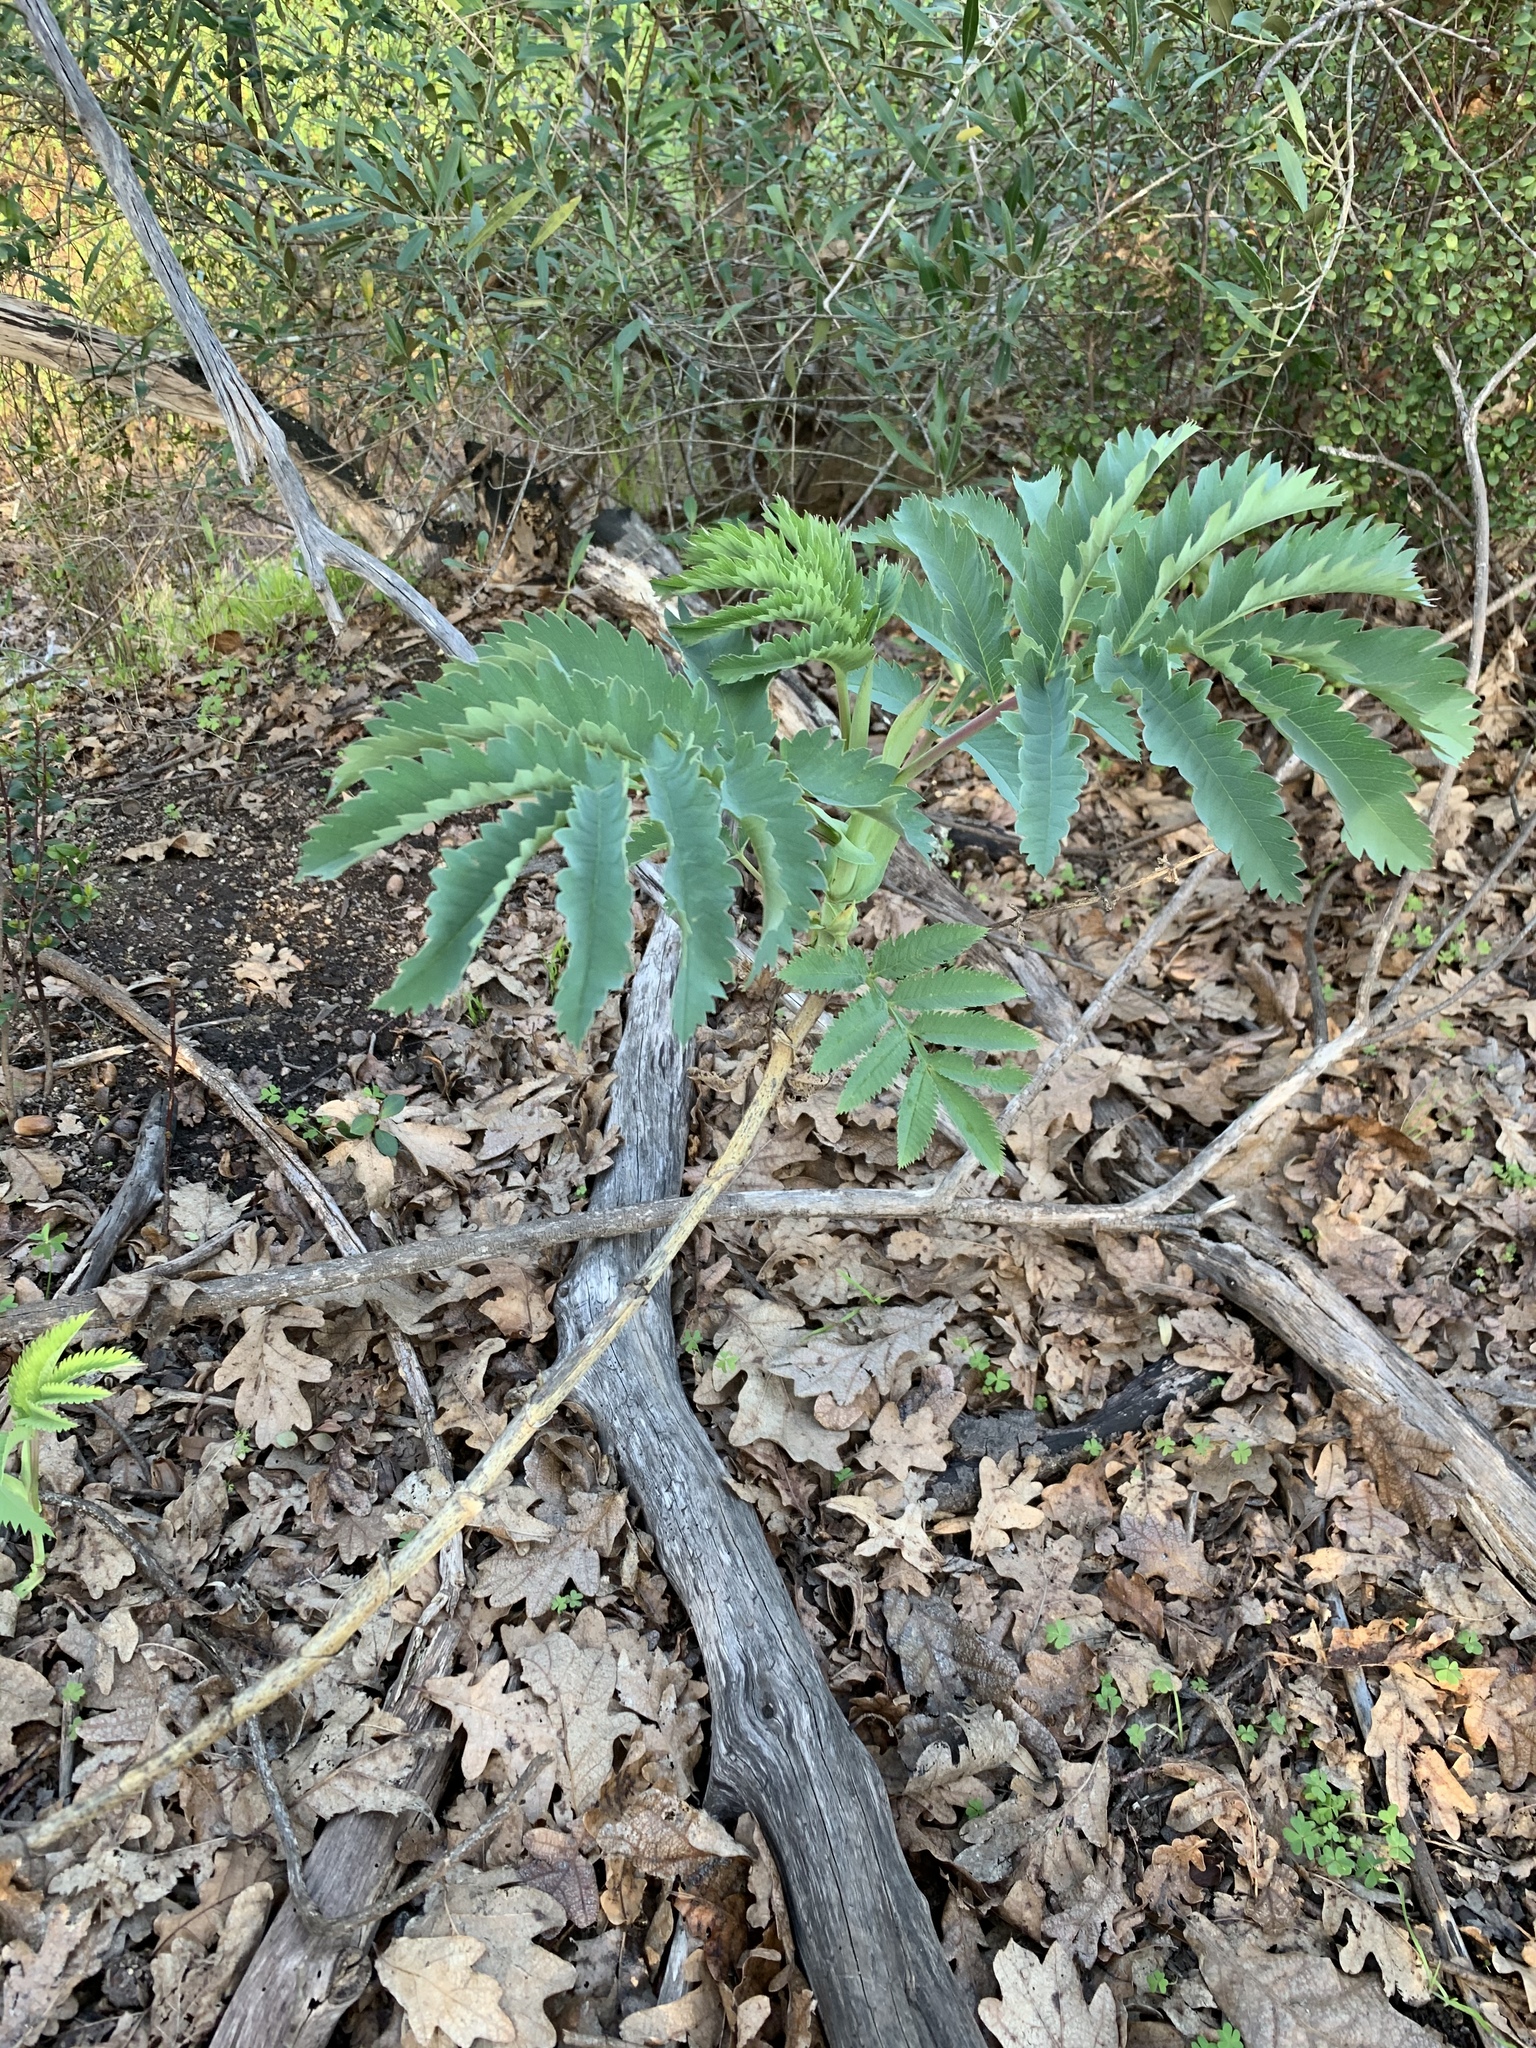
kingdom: Plantae
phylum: Tracheophyta
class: Magnoliopsida
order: Geraniales
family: Melianthaceae
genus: Melianthus
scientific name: Melianthus major
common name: Honey-flower
